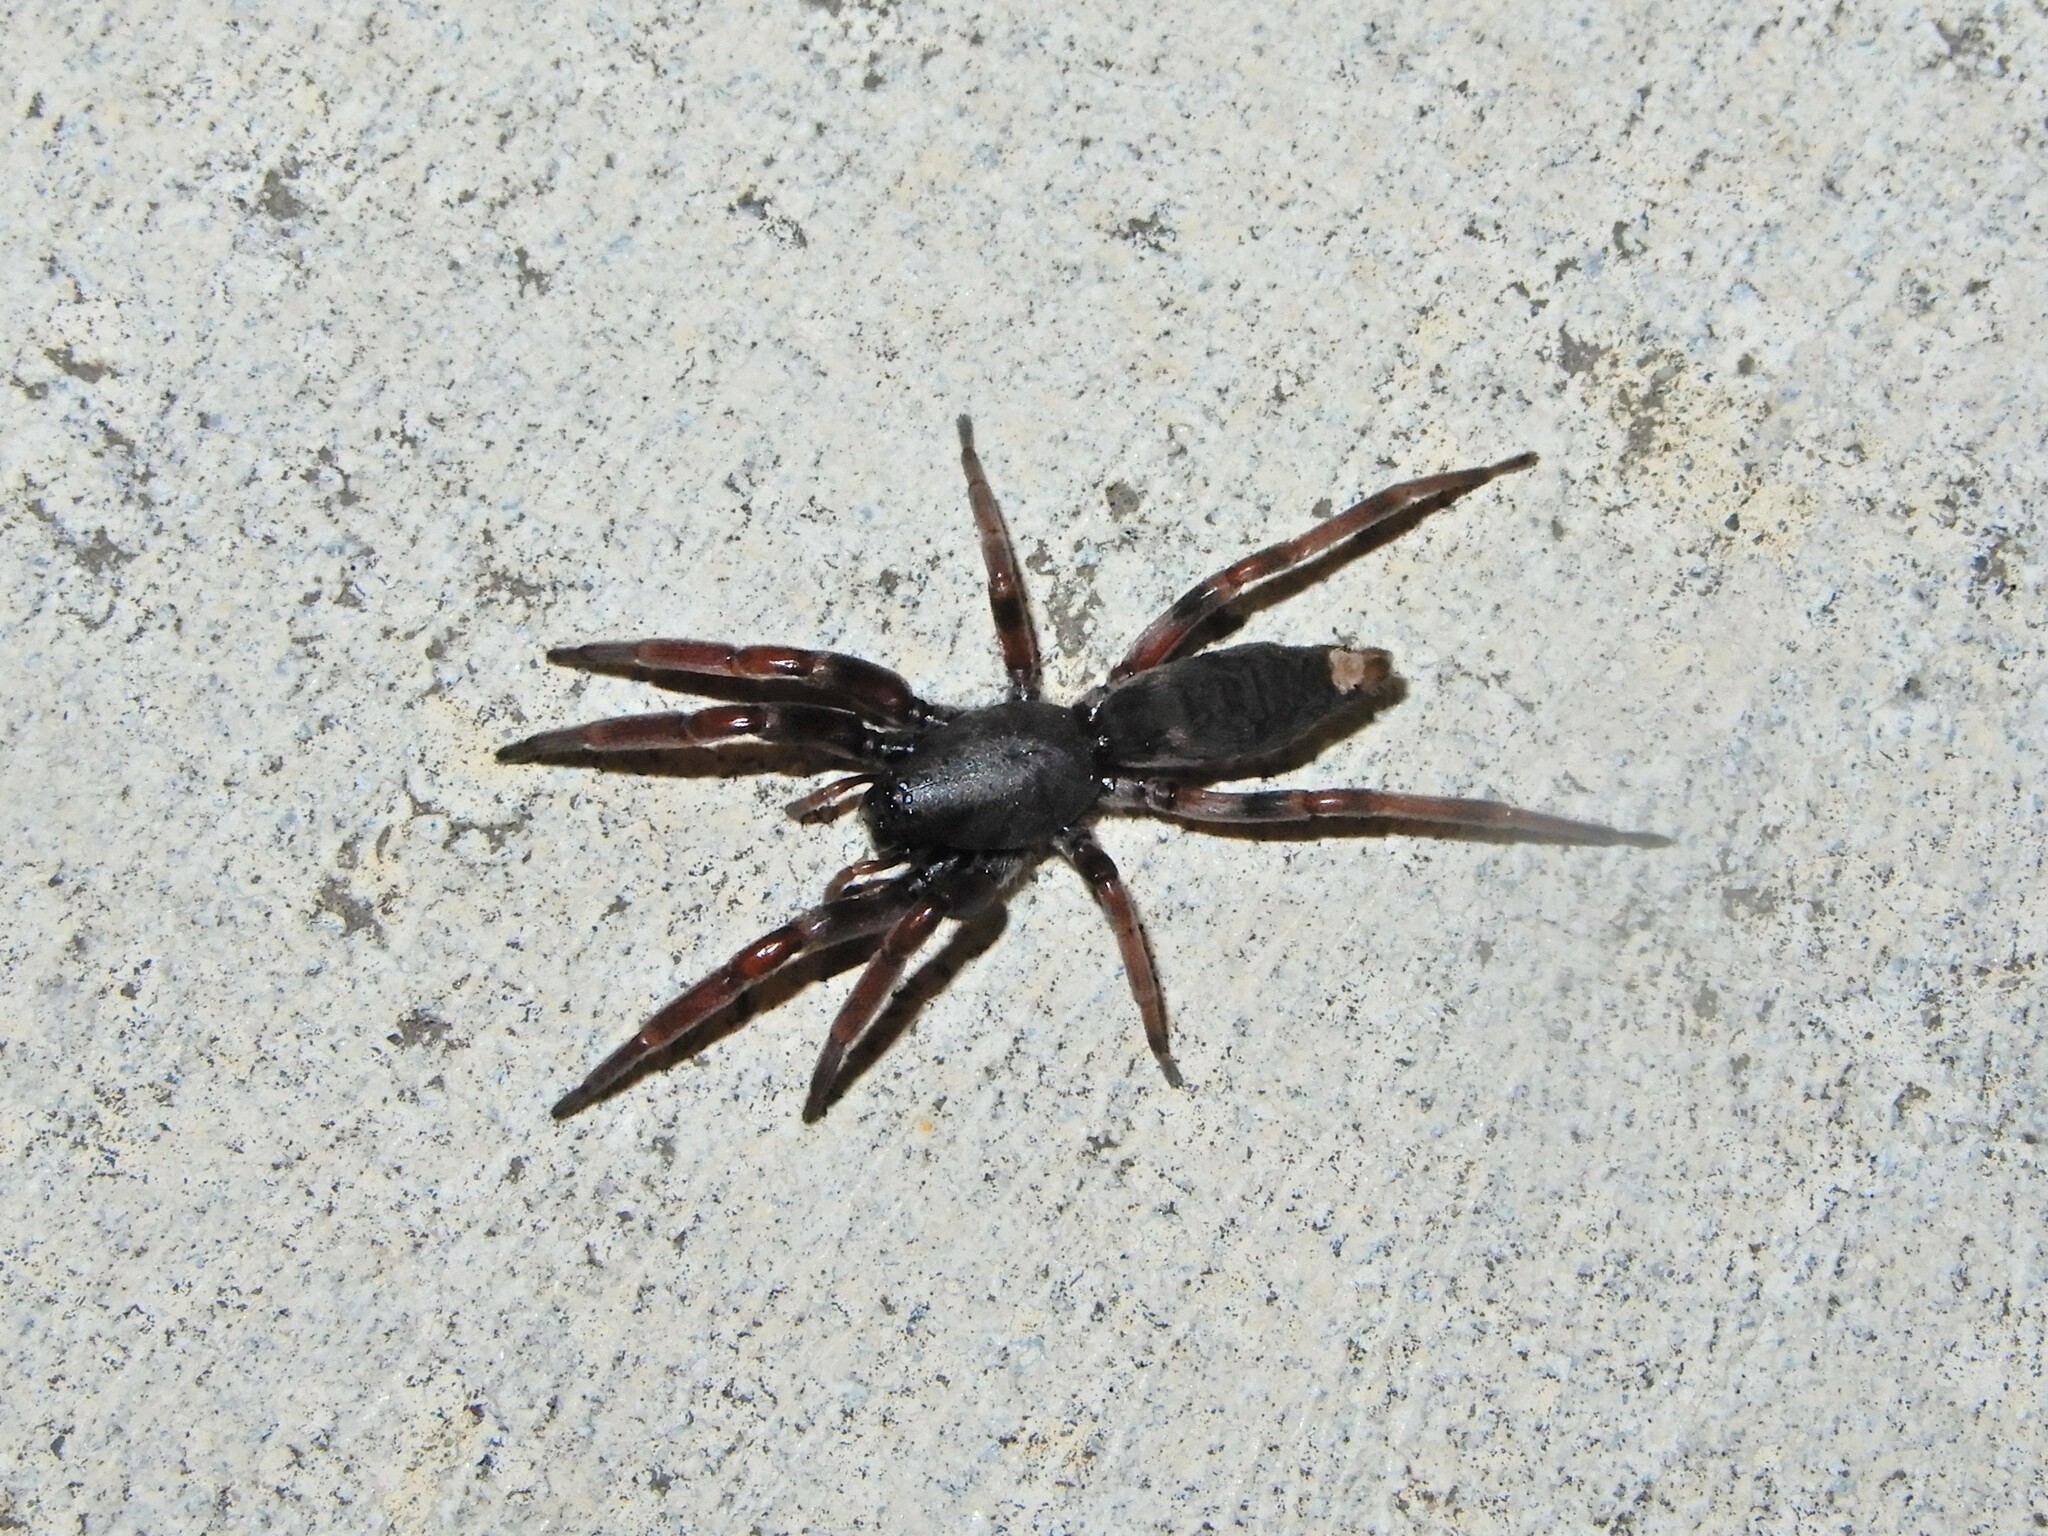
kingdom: Animalia
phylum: Arthropoda
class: Arachnida
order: Araneae
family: Lamponidae
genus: Lampona
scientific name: Lampona murina
